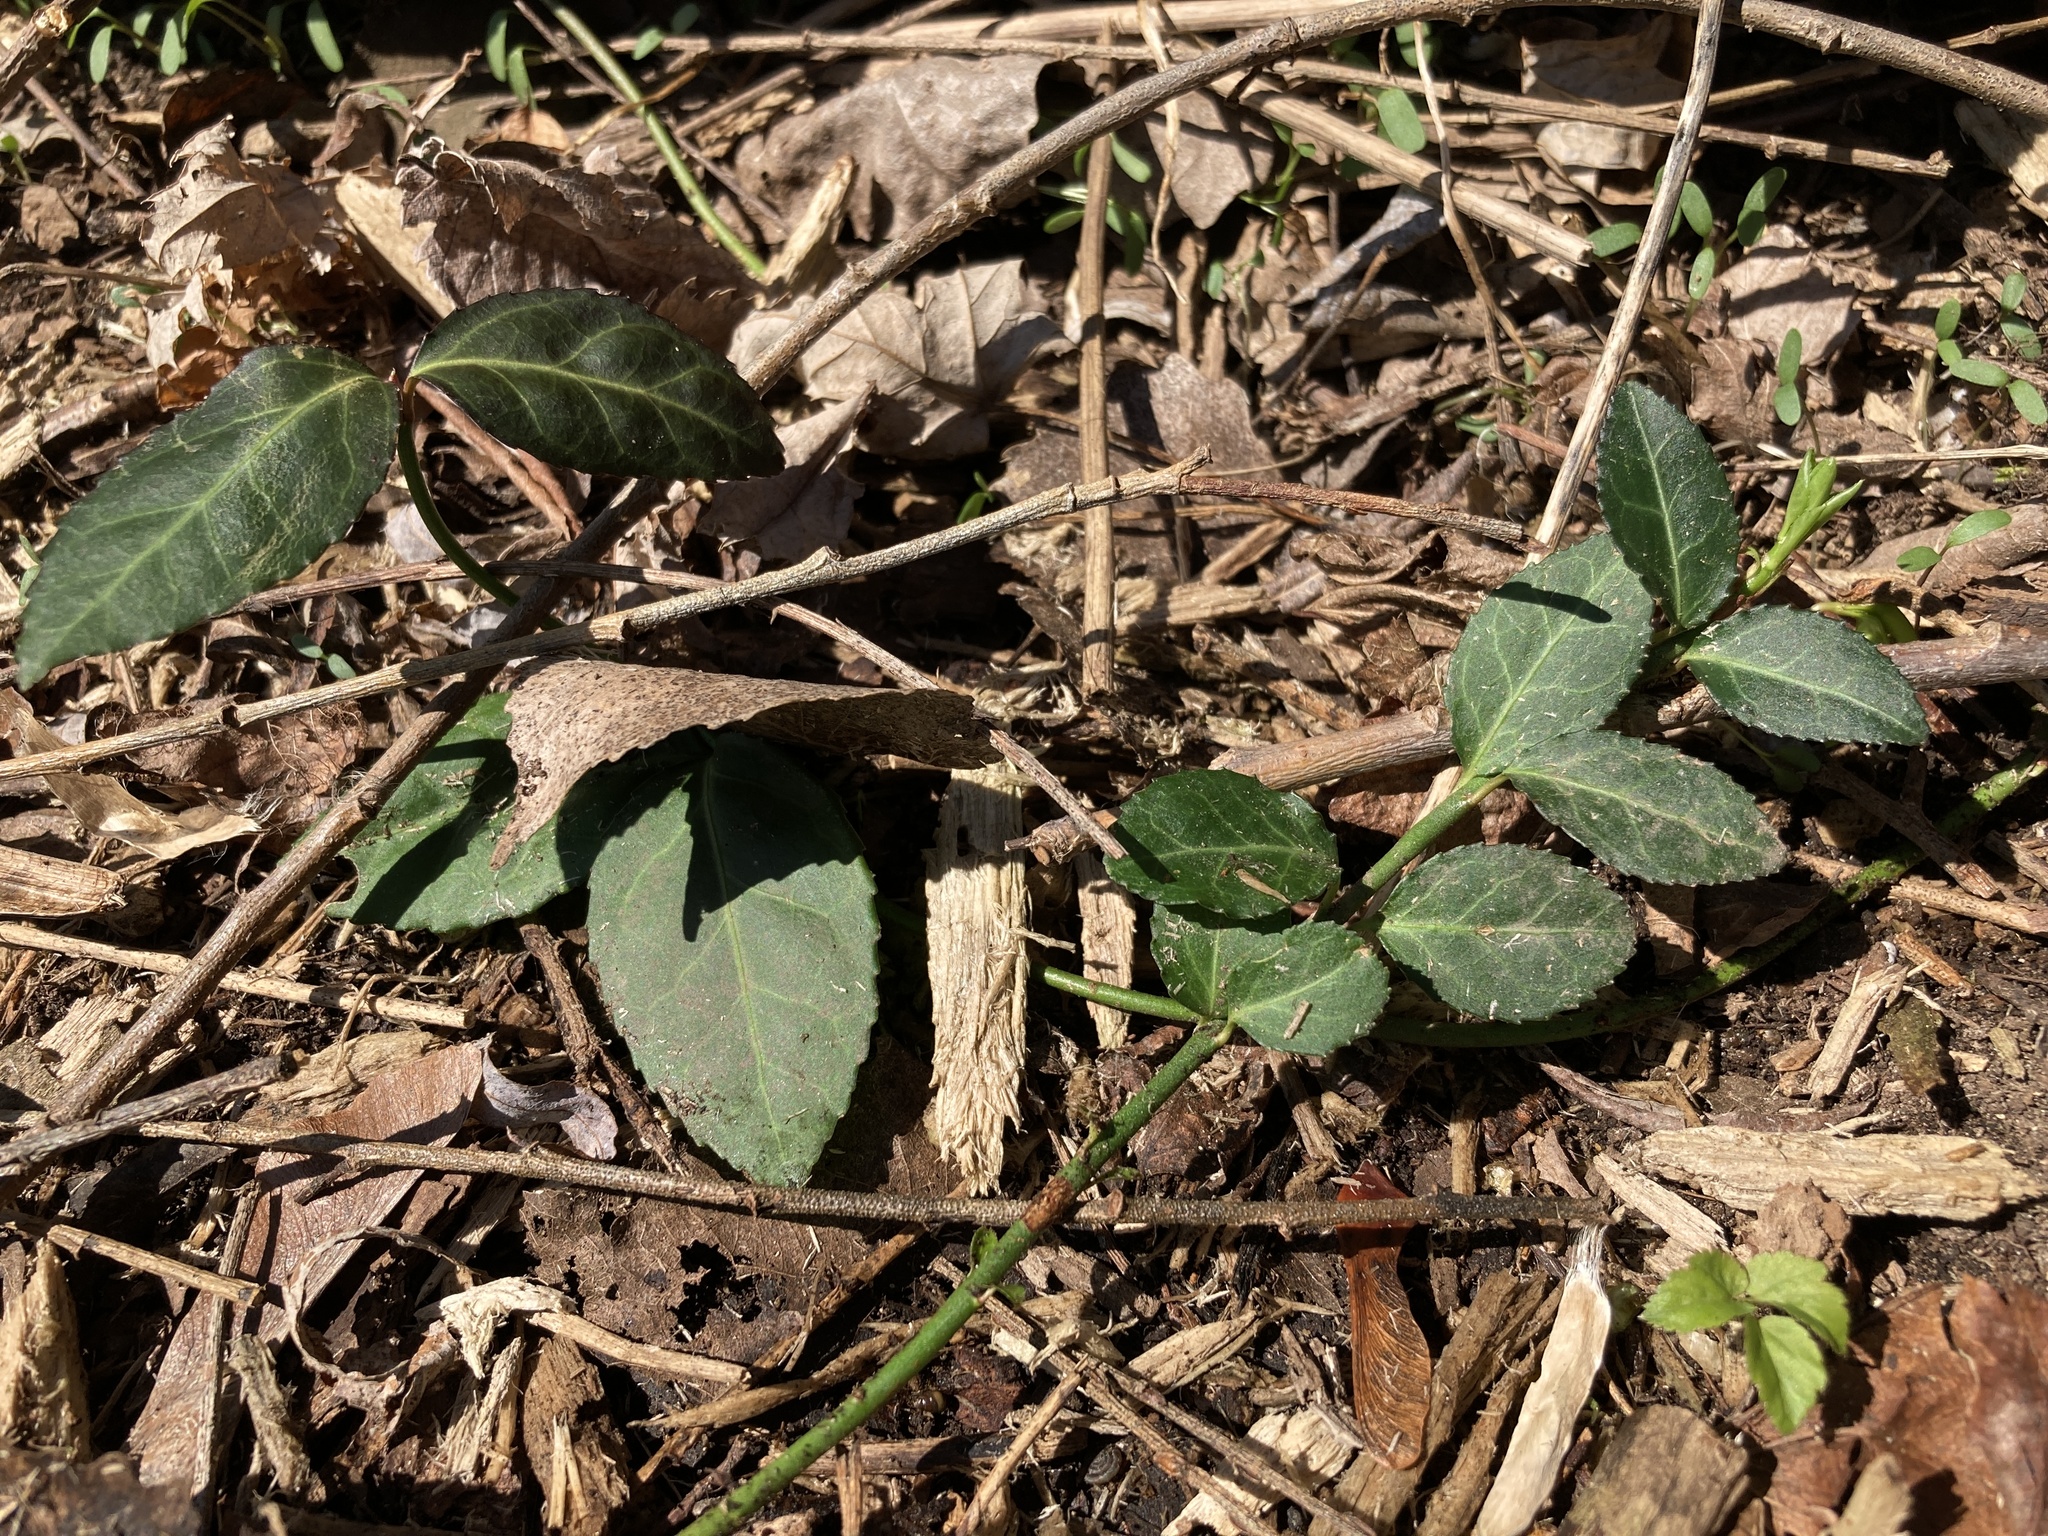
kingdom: Plantae
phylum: Tracheophyta
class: Magnoliopsida
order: Celastrales
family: Celastraceae
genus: Euonymus
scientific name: Euonymus fortunei
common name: Climbing euonymus
